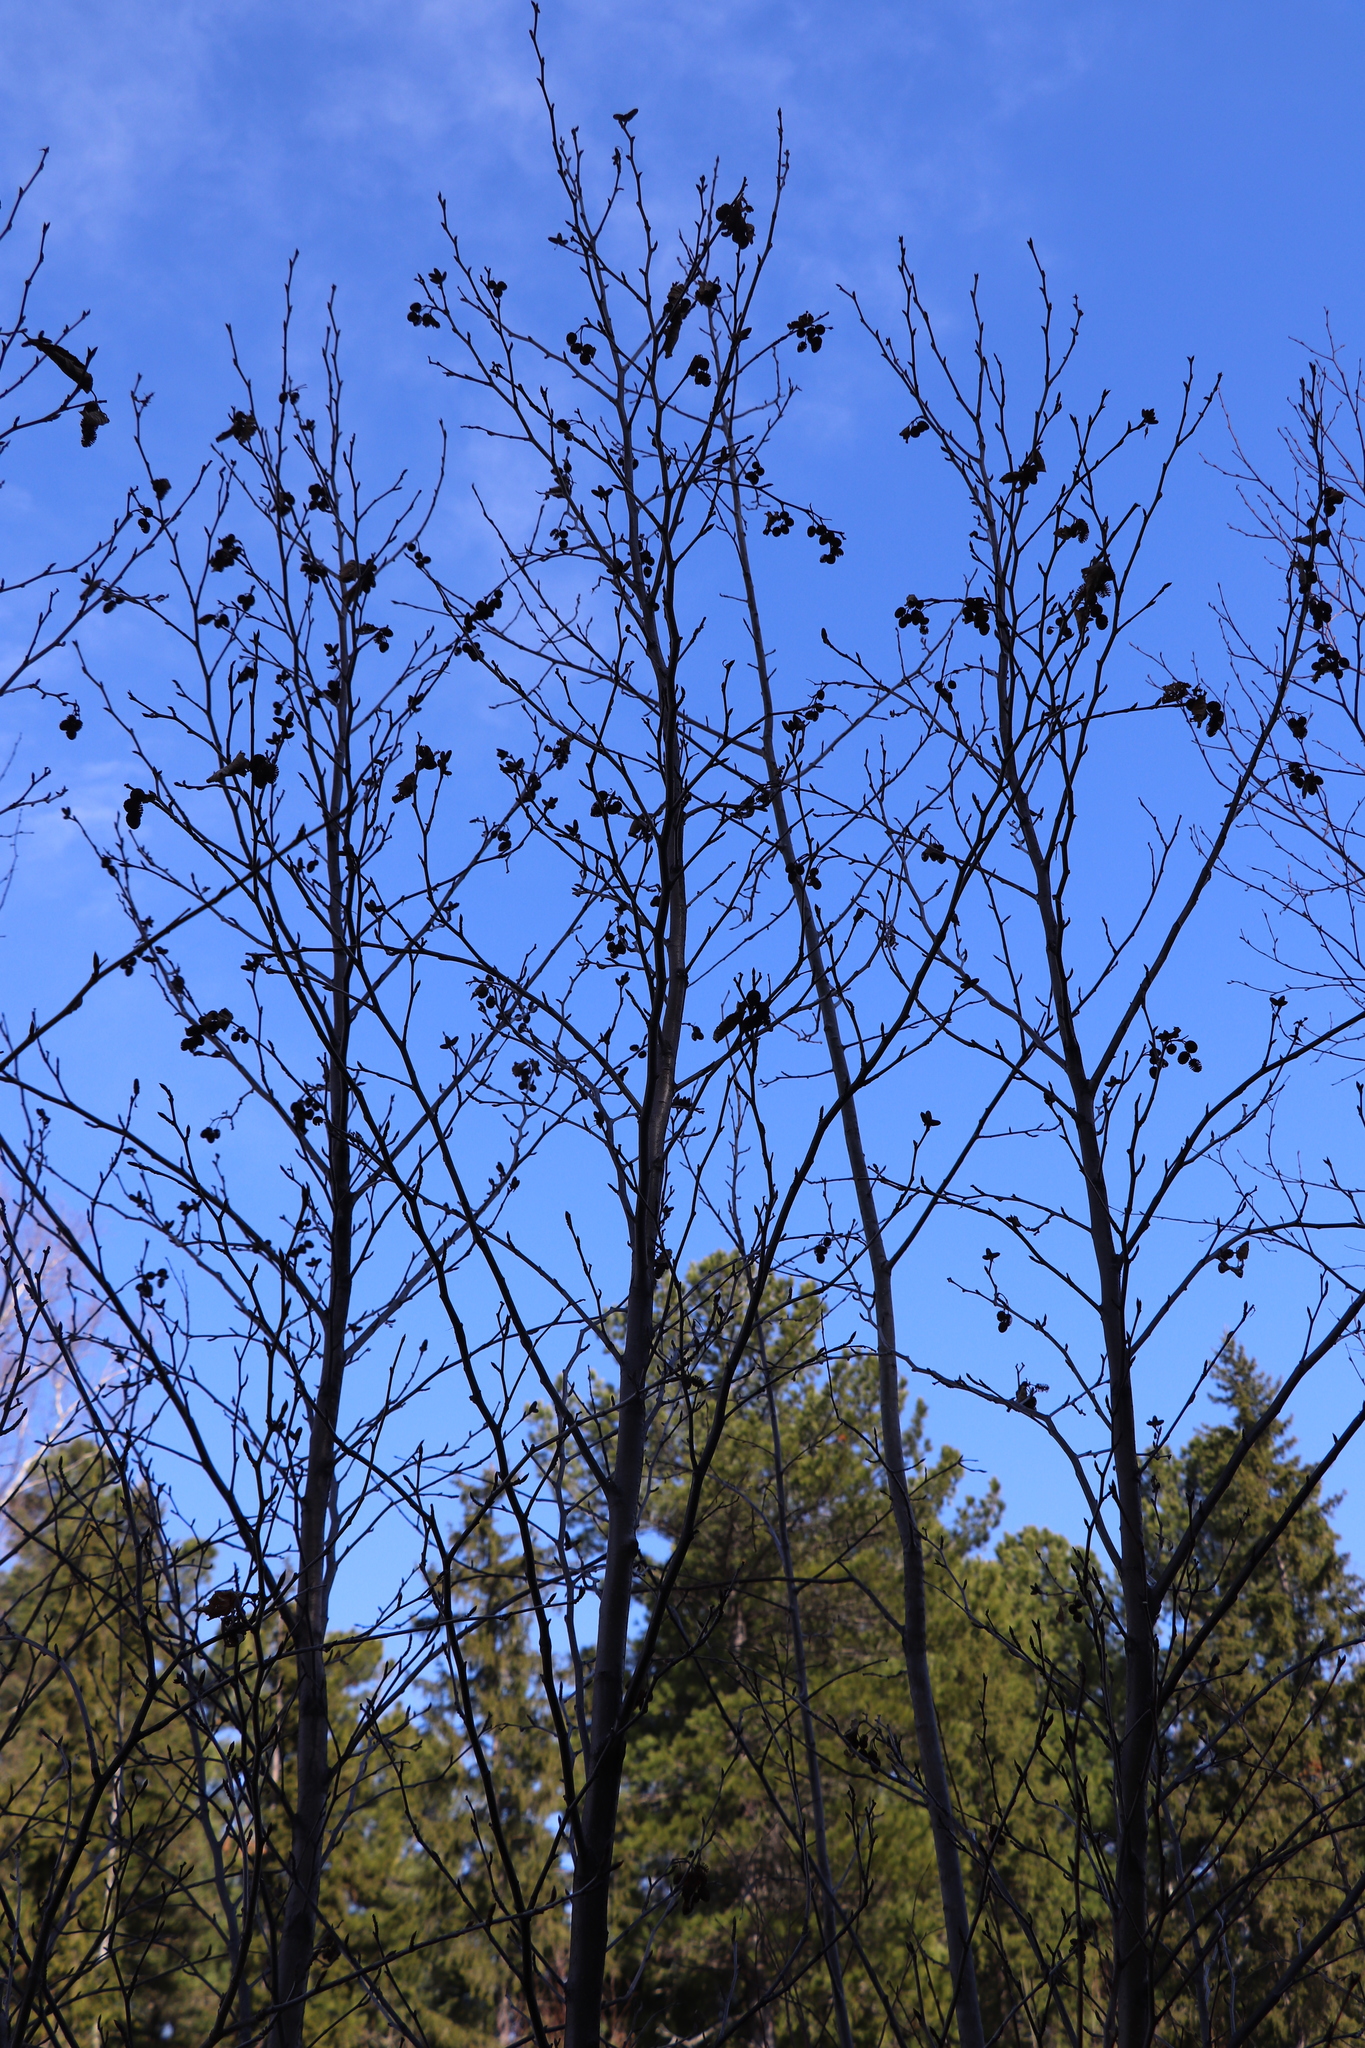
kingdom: Plantae
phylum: Tracheophyta
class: Magnoliopsida
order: Fagales
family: Betulaceae
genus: Alnus
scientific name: Alnus alnobetula
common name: Green alder
